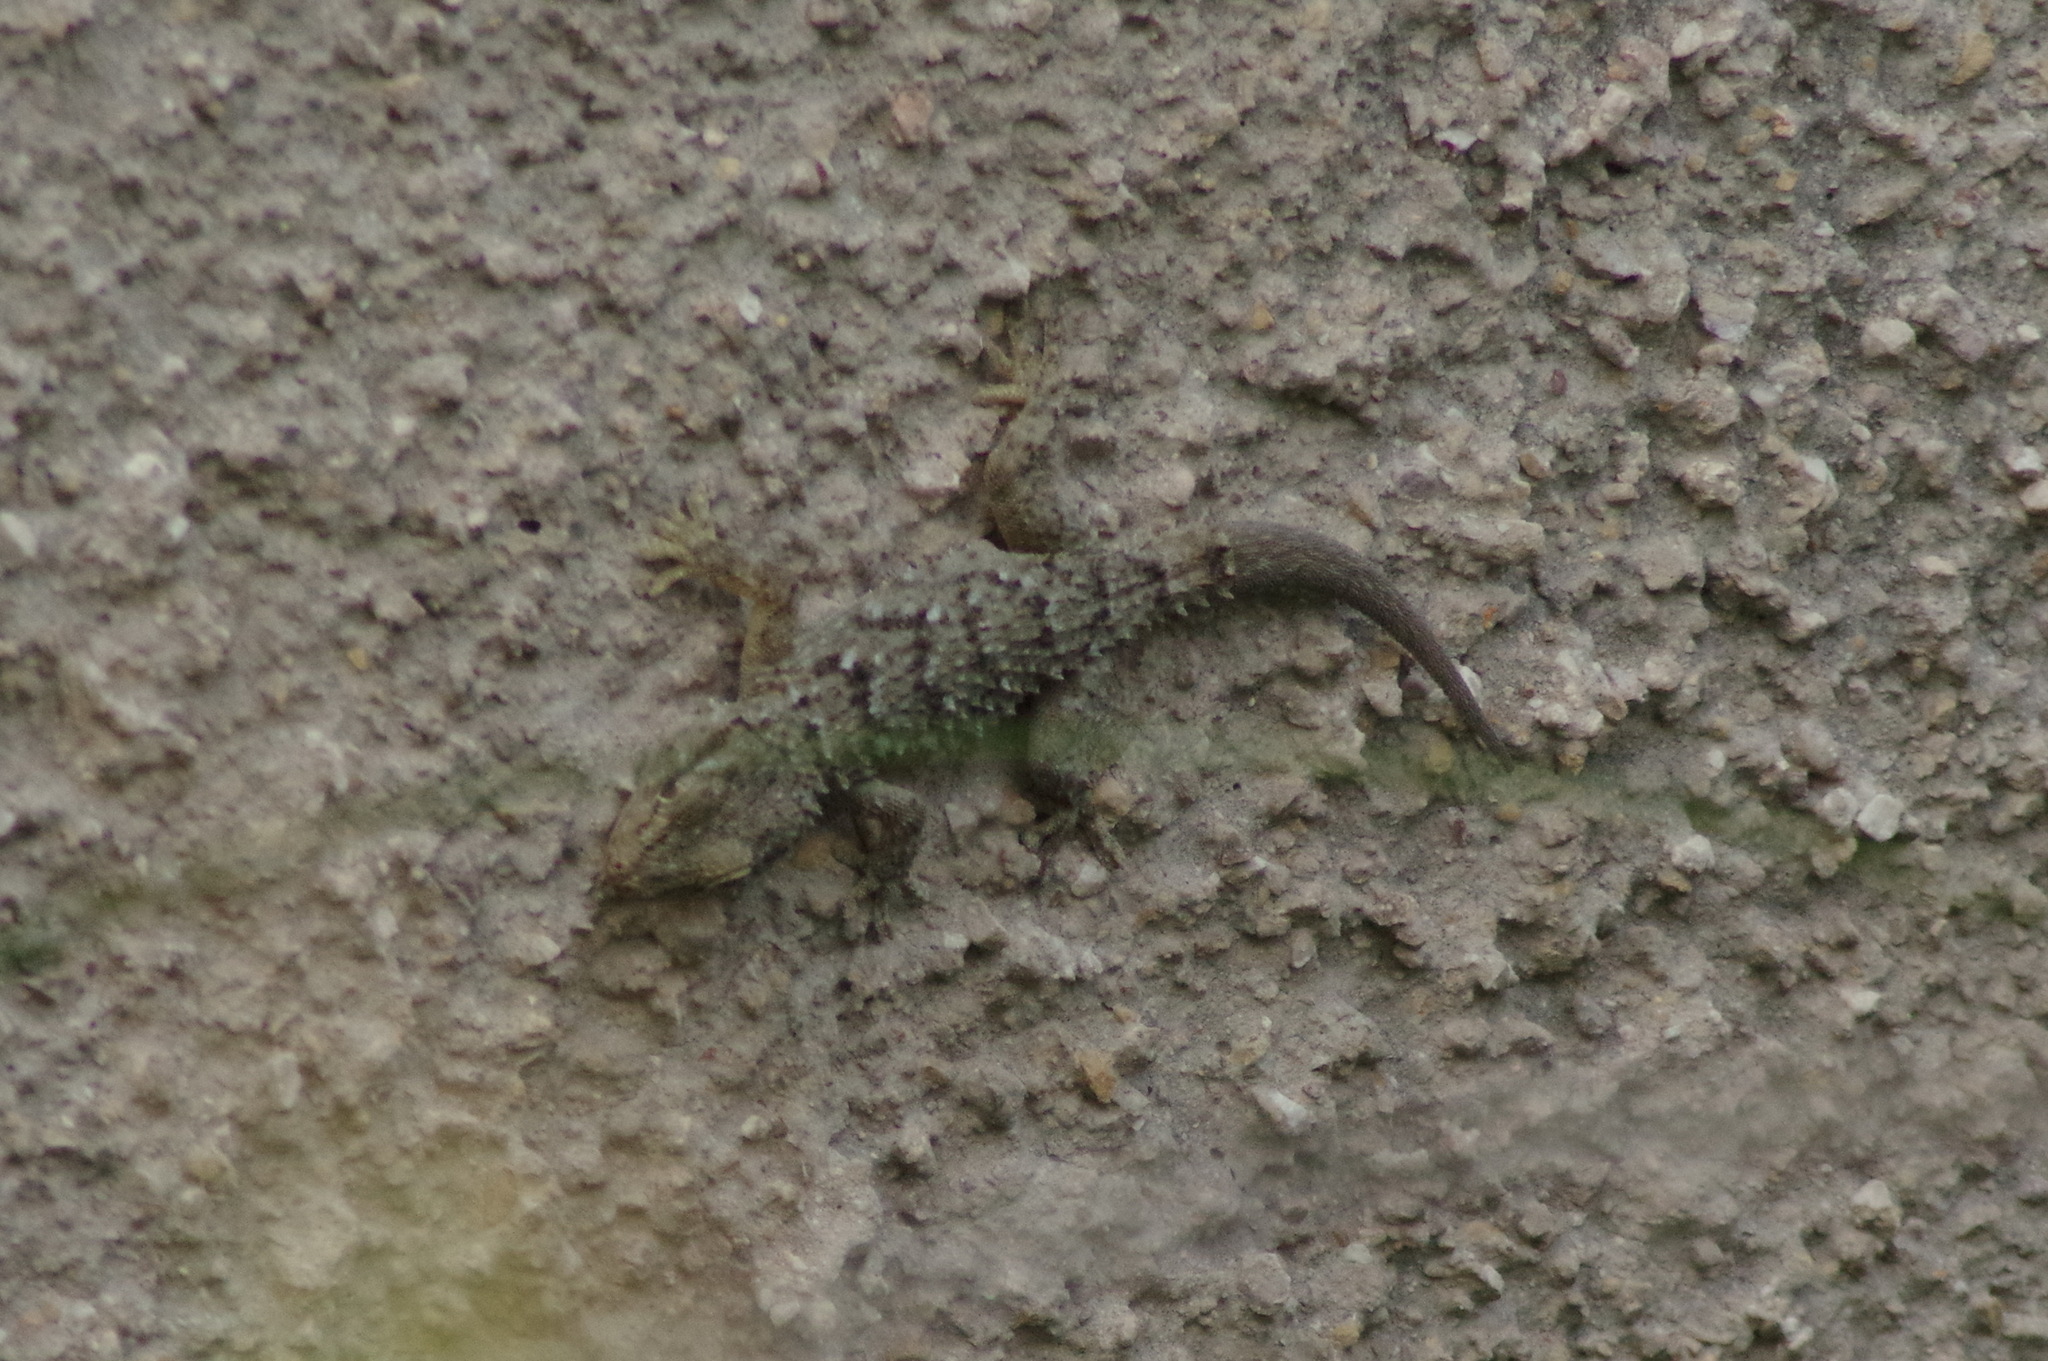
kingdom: Animalia
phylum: Chordata
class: Squamata
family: Phyllodactylidae
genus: Tarentola
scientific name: Tarentola mauritanica
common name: Moorish gecko
